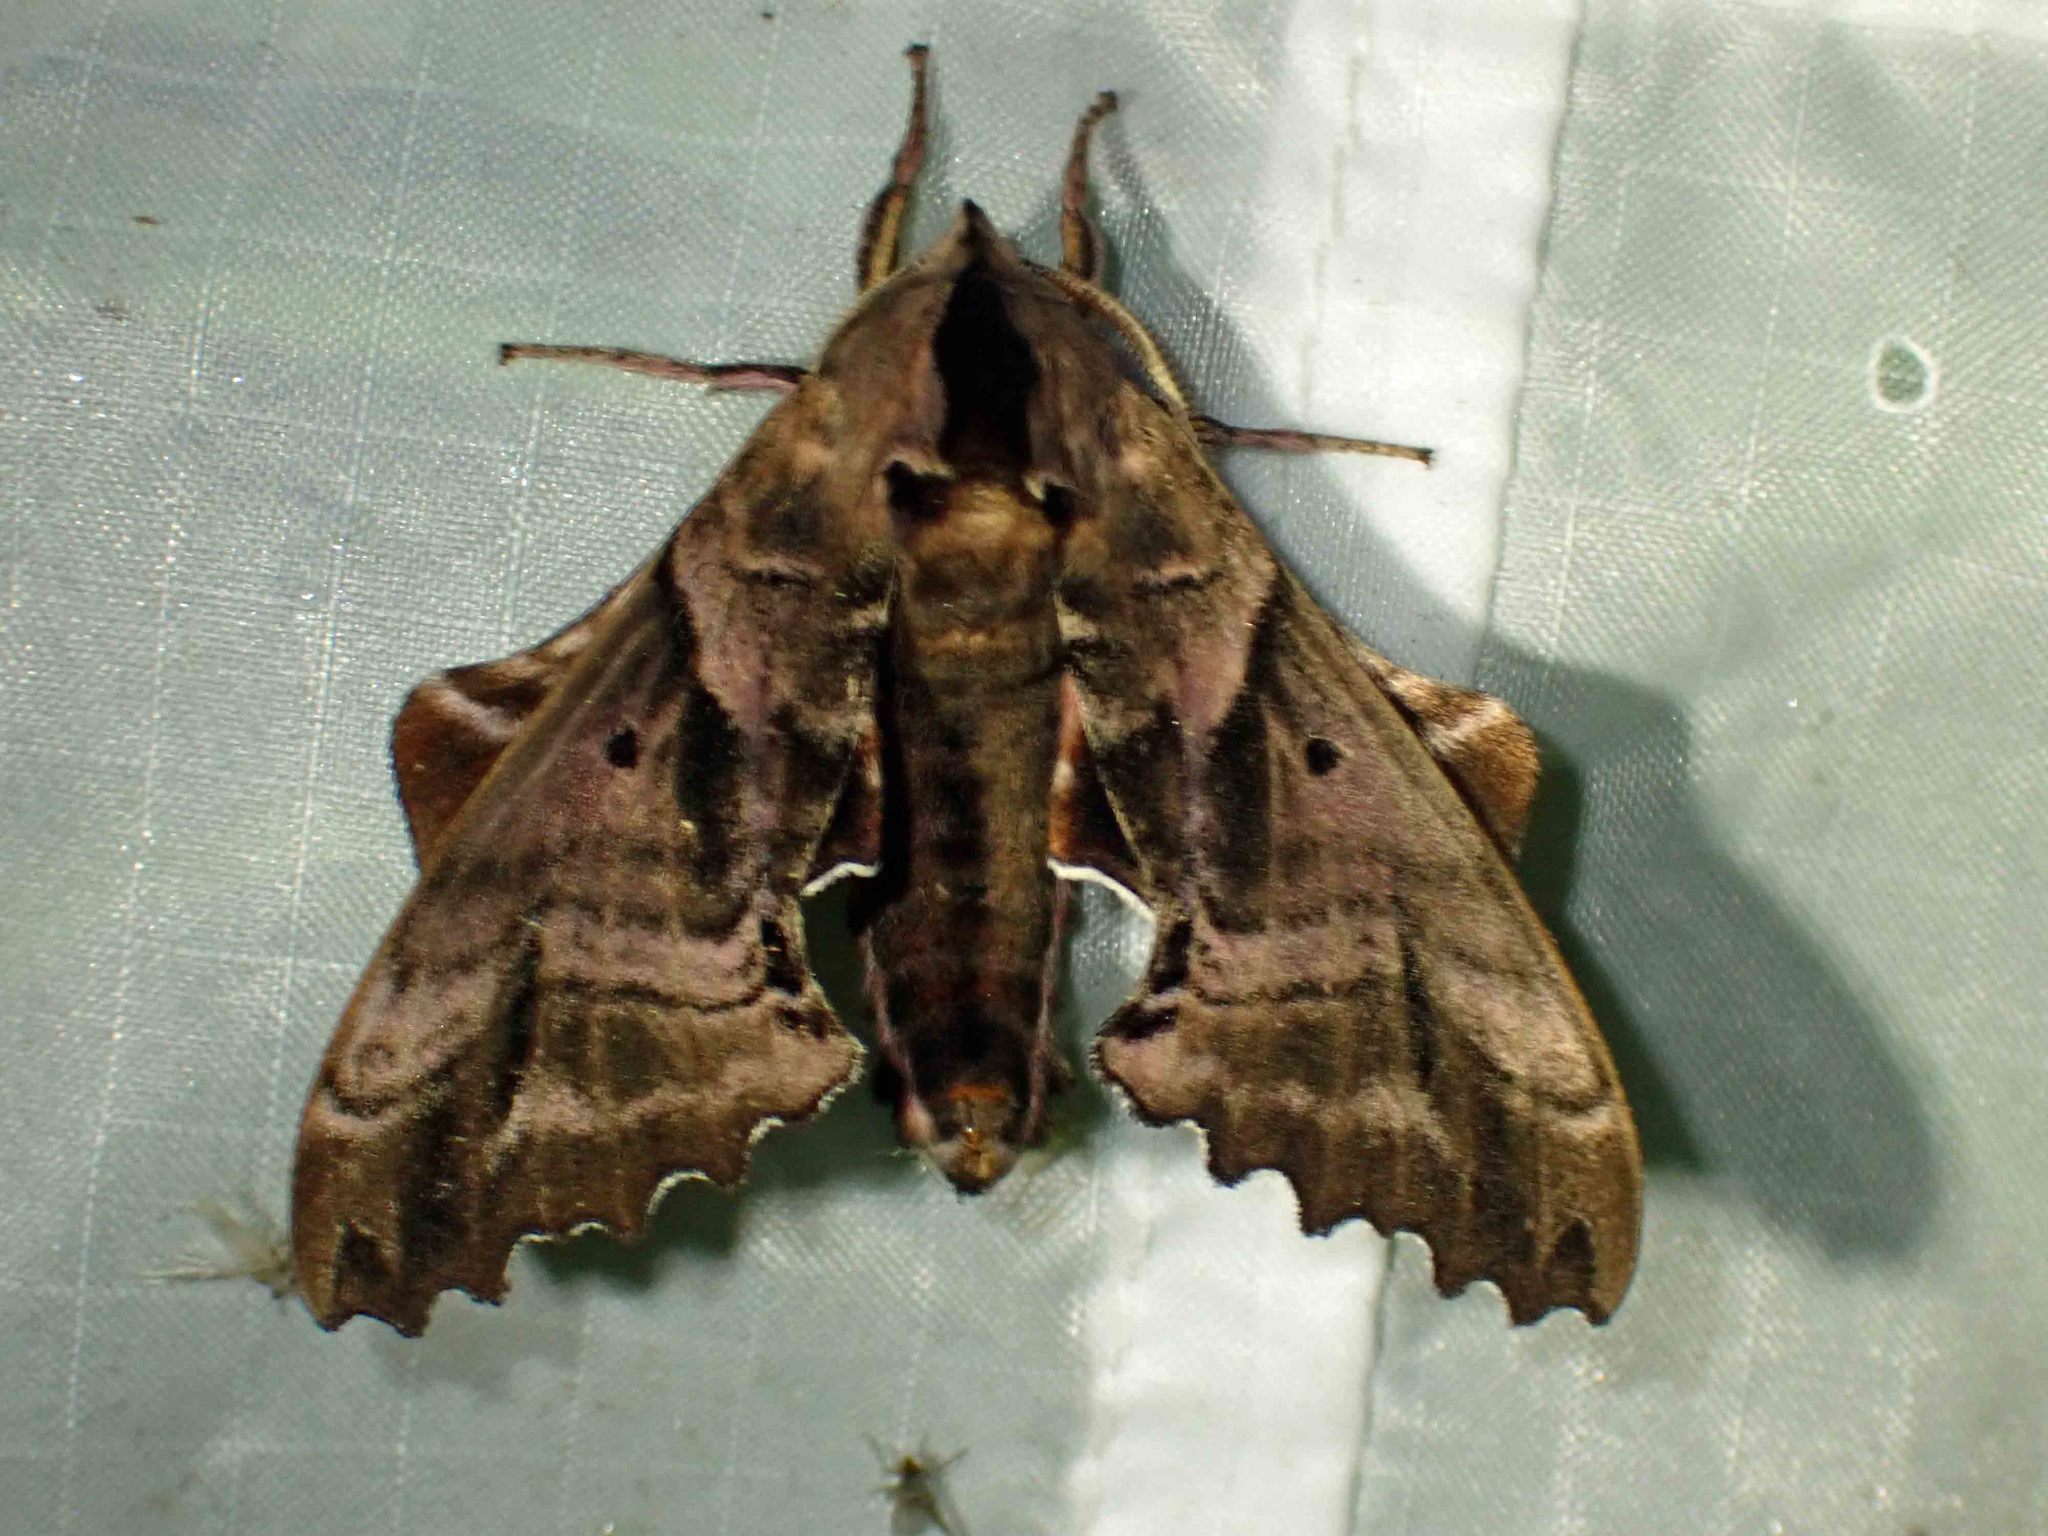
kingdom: Animalia
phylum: Arthropoda
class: Insecta
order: Lepidoptera
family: Sphingidae
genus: Paonias
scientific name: Paonias excaecata
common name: Blind-eyed sphinx
